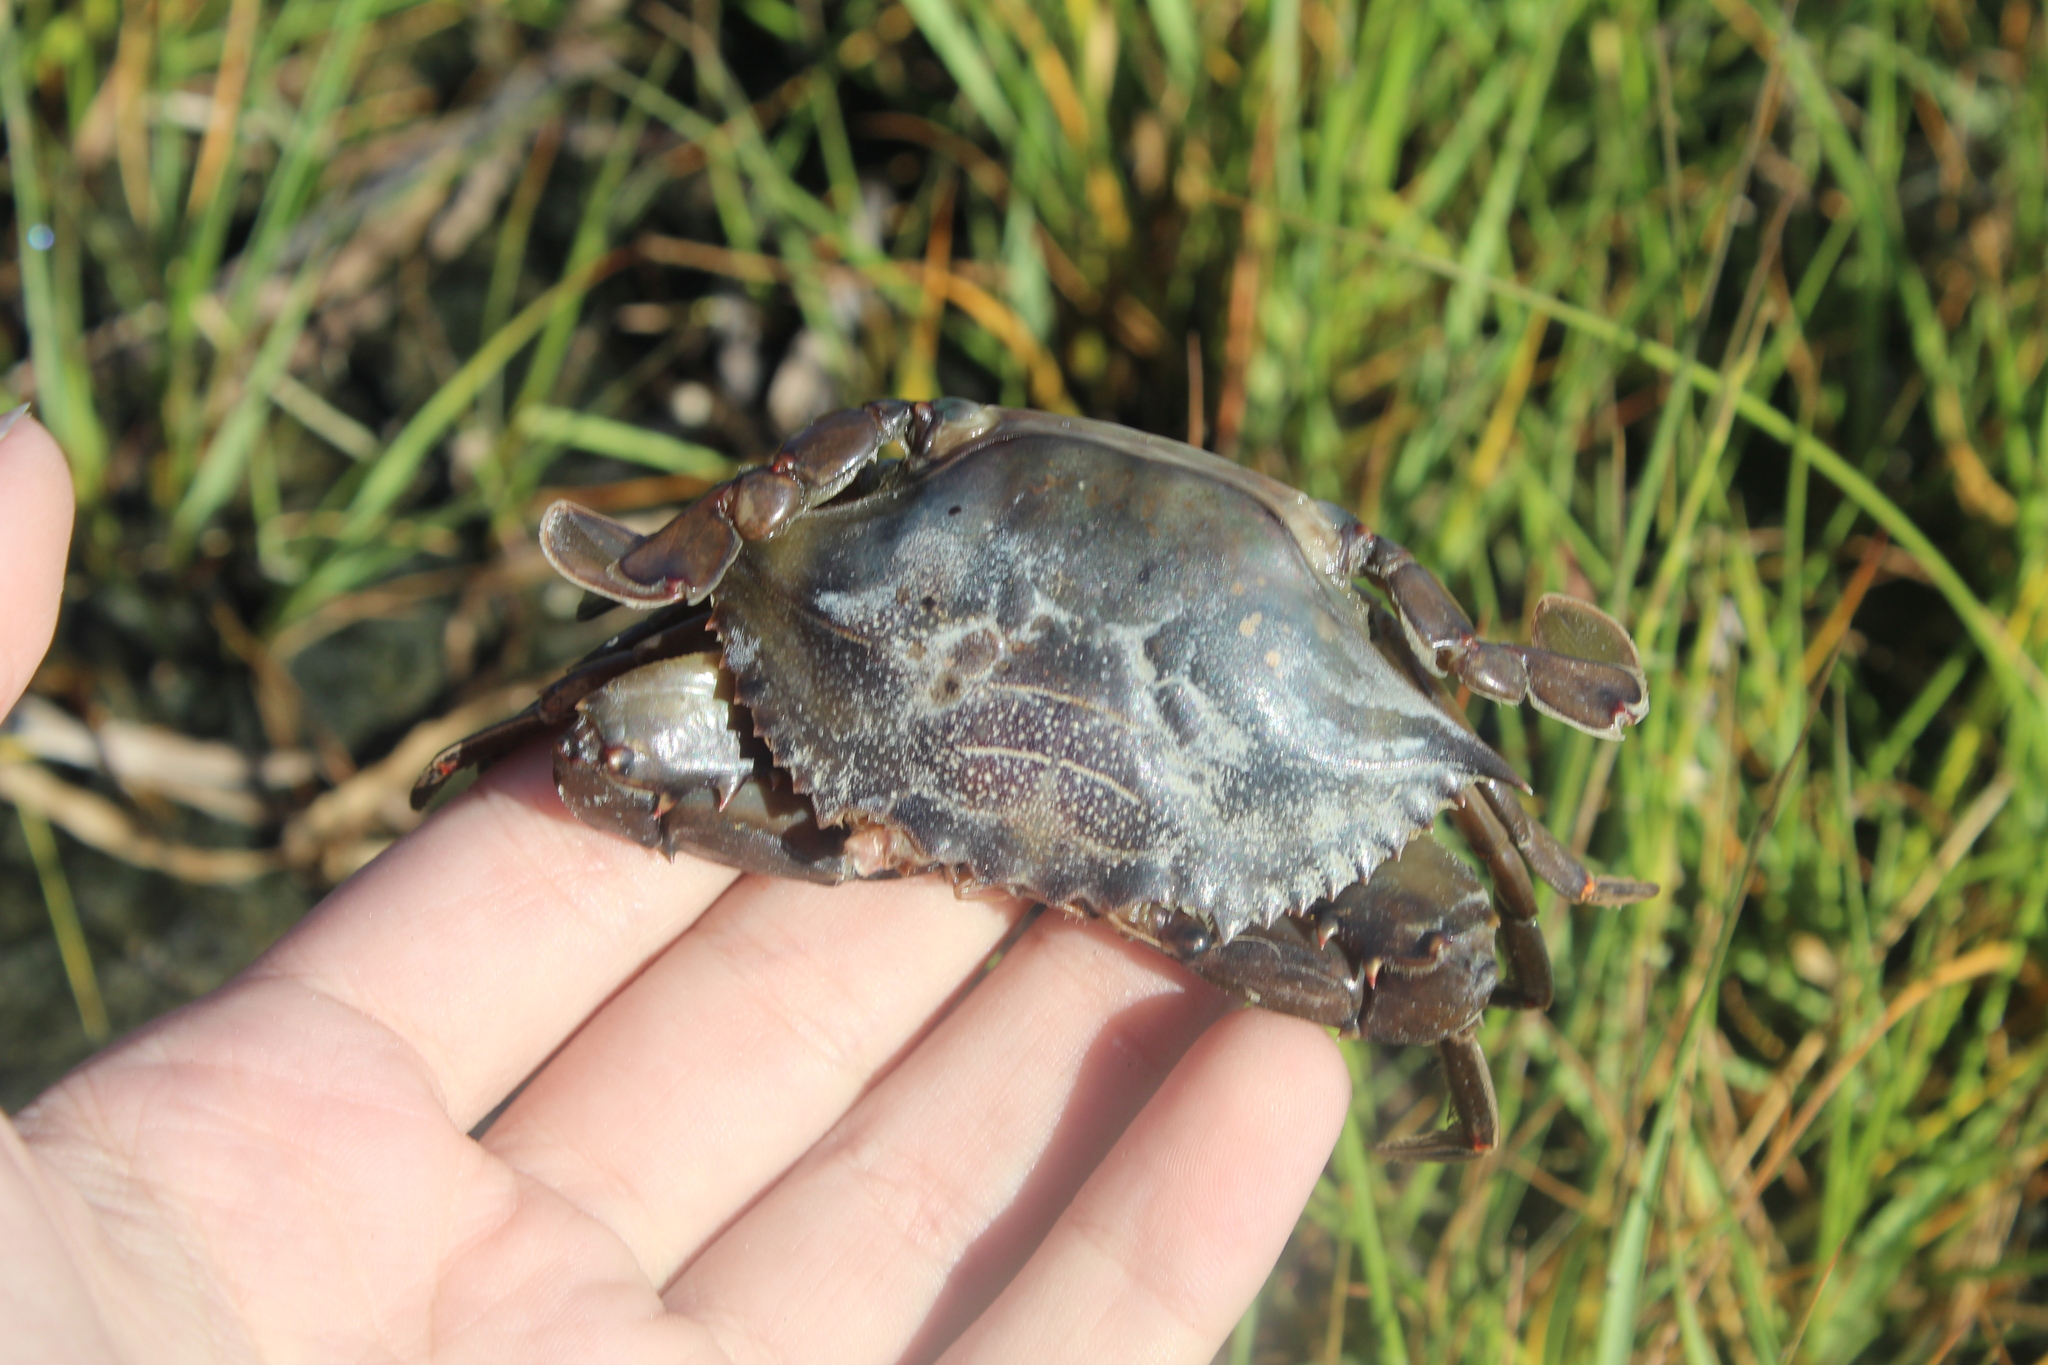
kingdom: Animalia
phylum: Arthropoda
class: Malacostraca
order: Decapoda
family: Portunidae
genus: Callinectes
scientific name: Callinectes sapidus
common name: Blue crab
